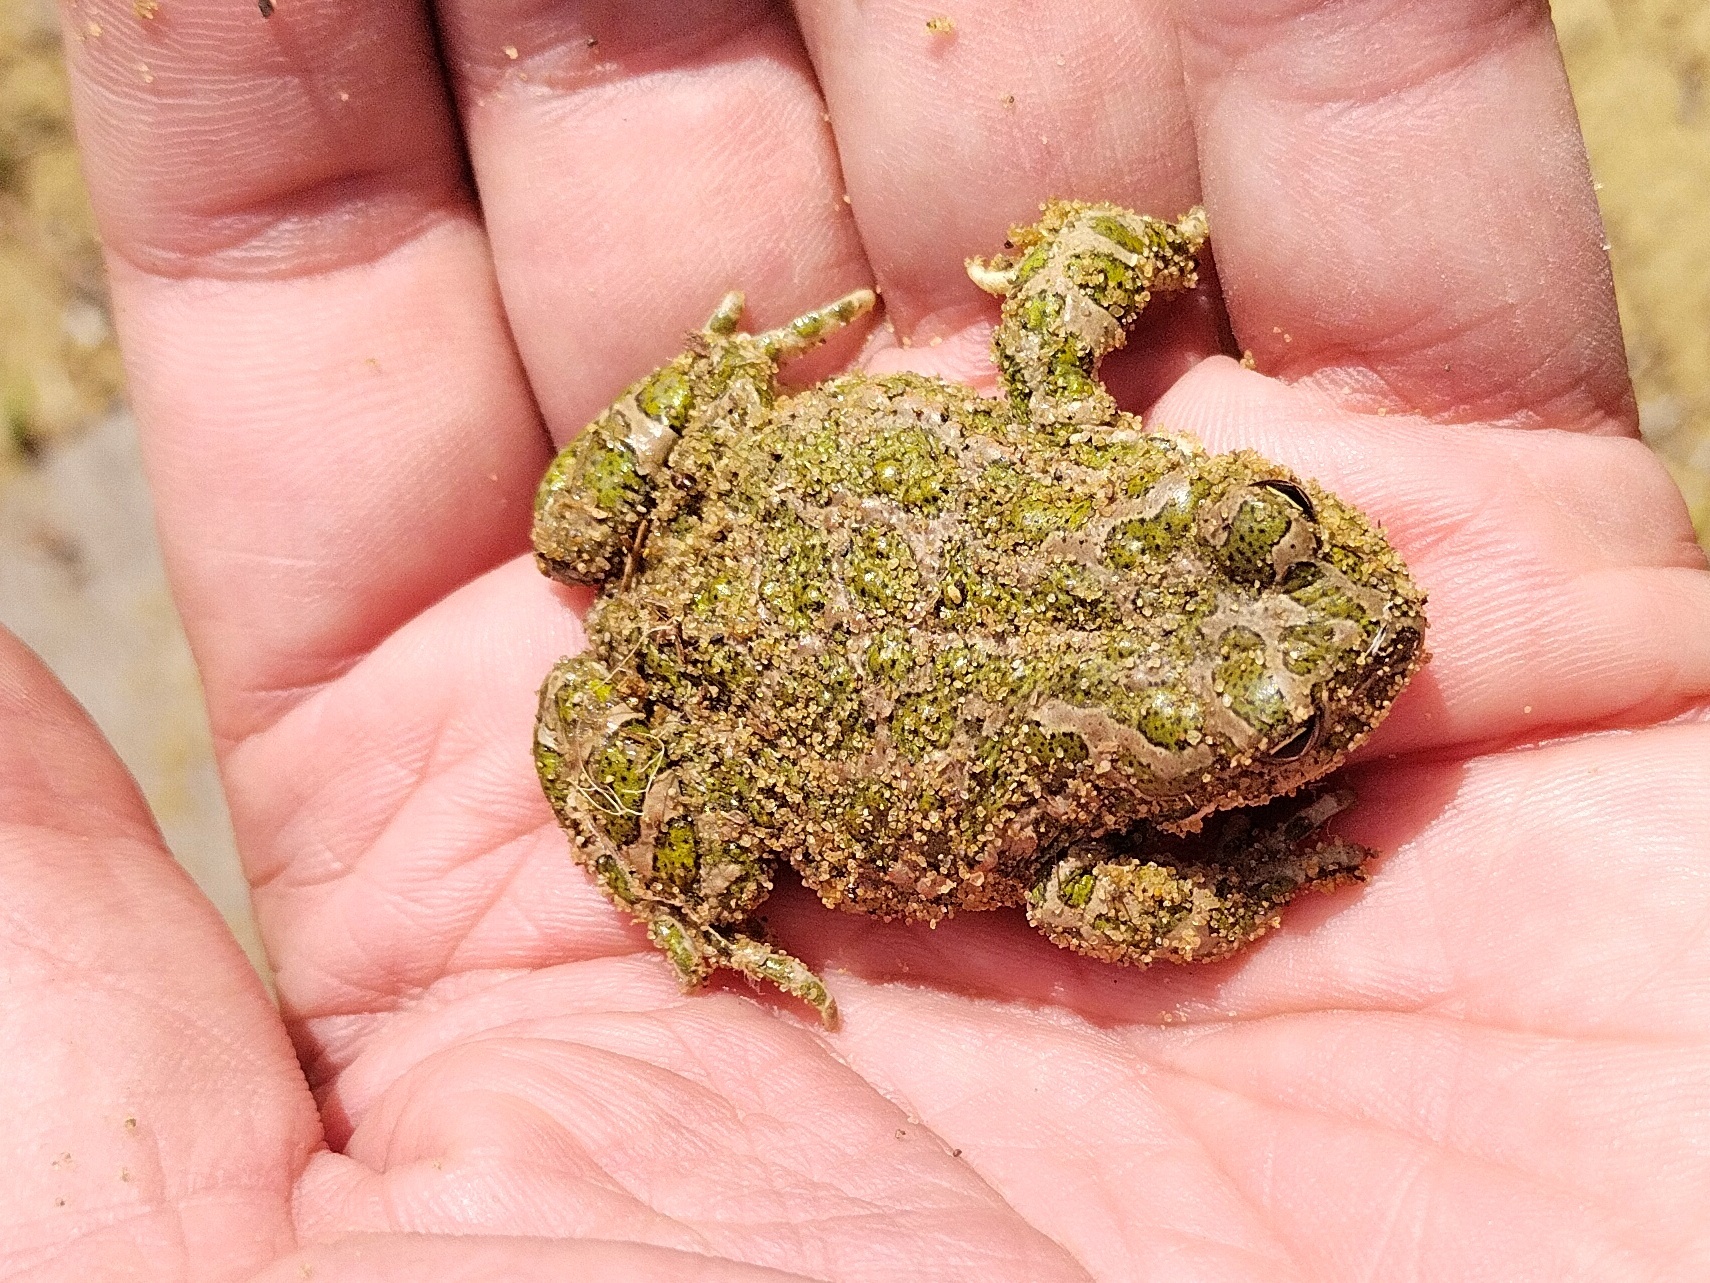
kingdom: Animalia
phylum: Chordata
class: Amphibia
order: Anura
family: Bufonidae
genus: Bufotes
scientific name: Bufotes viridis
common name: European green toad
